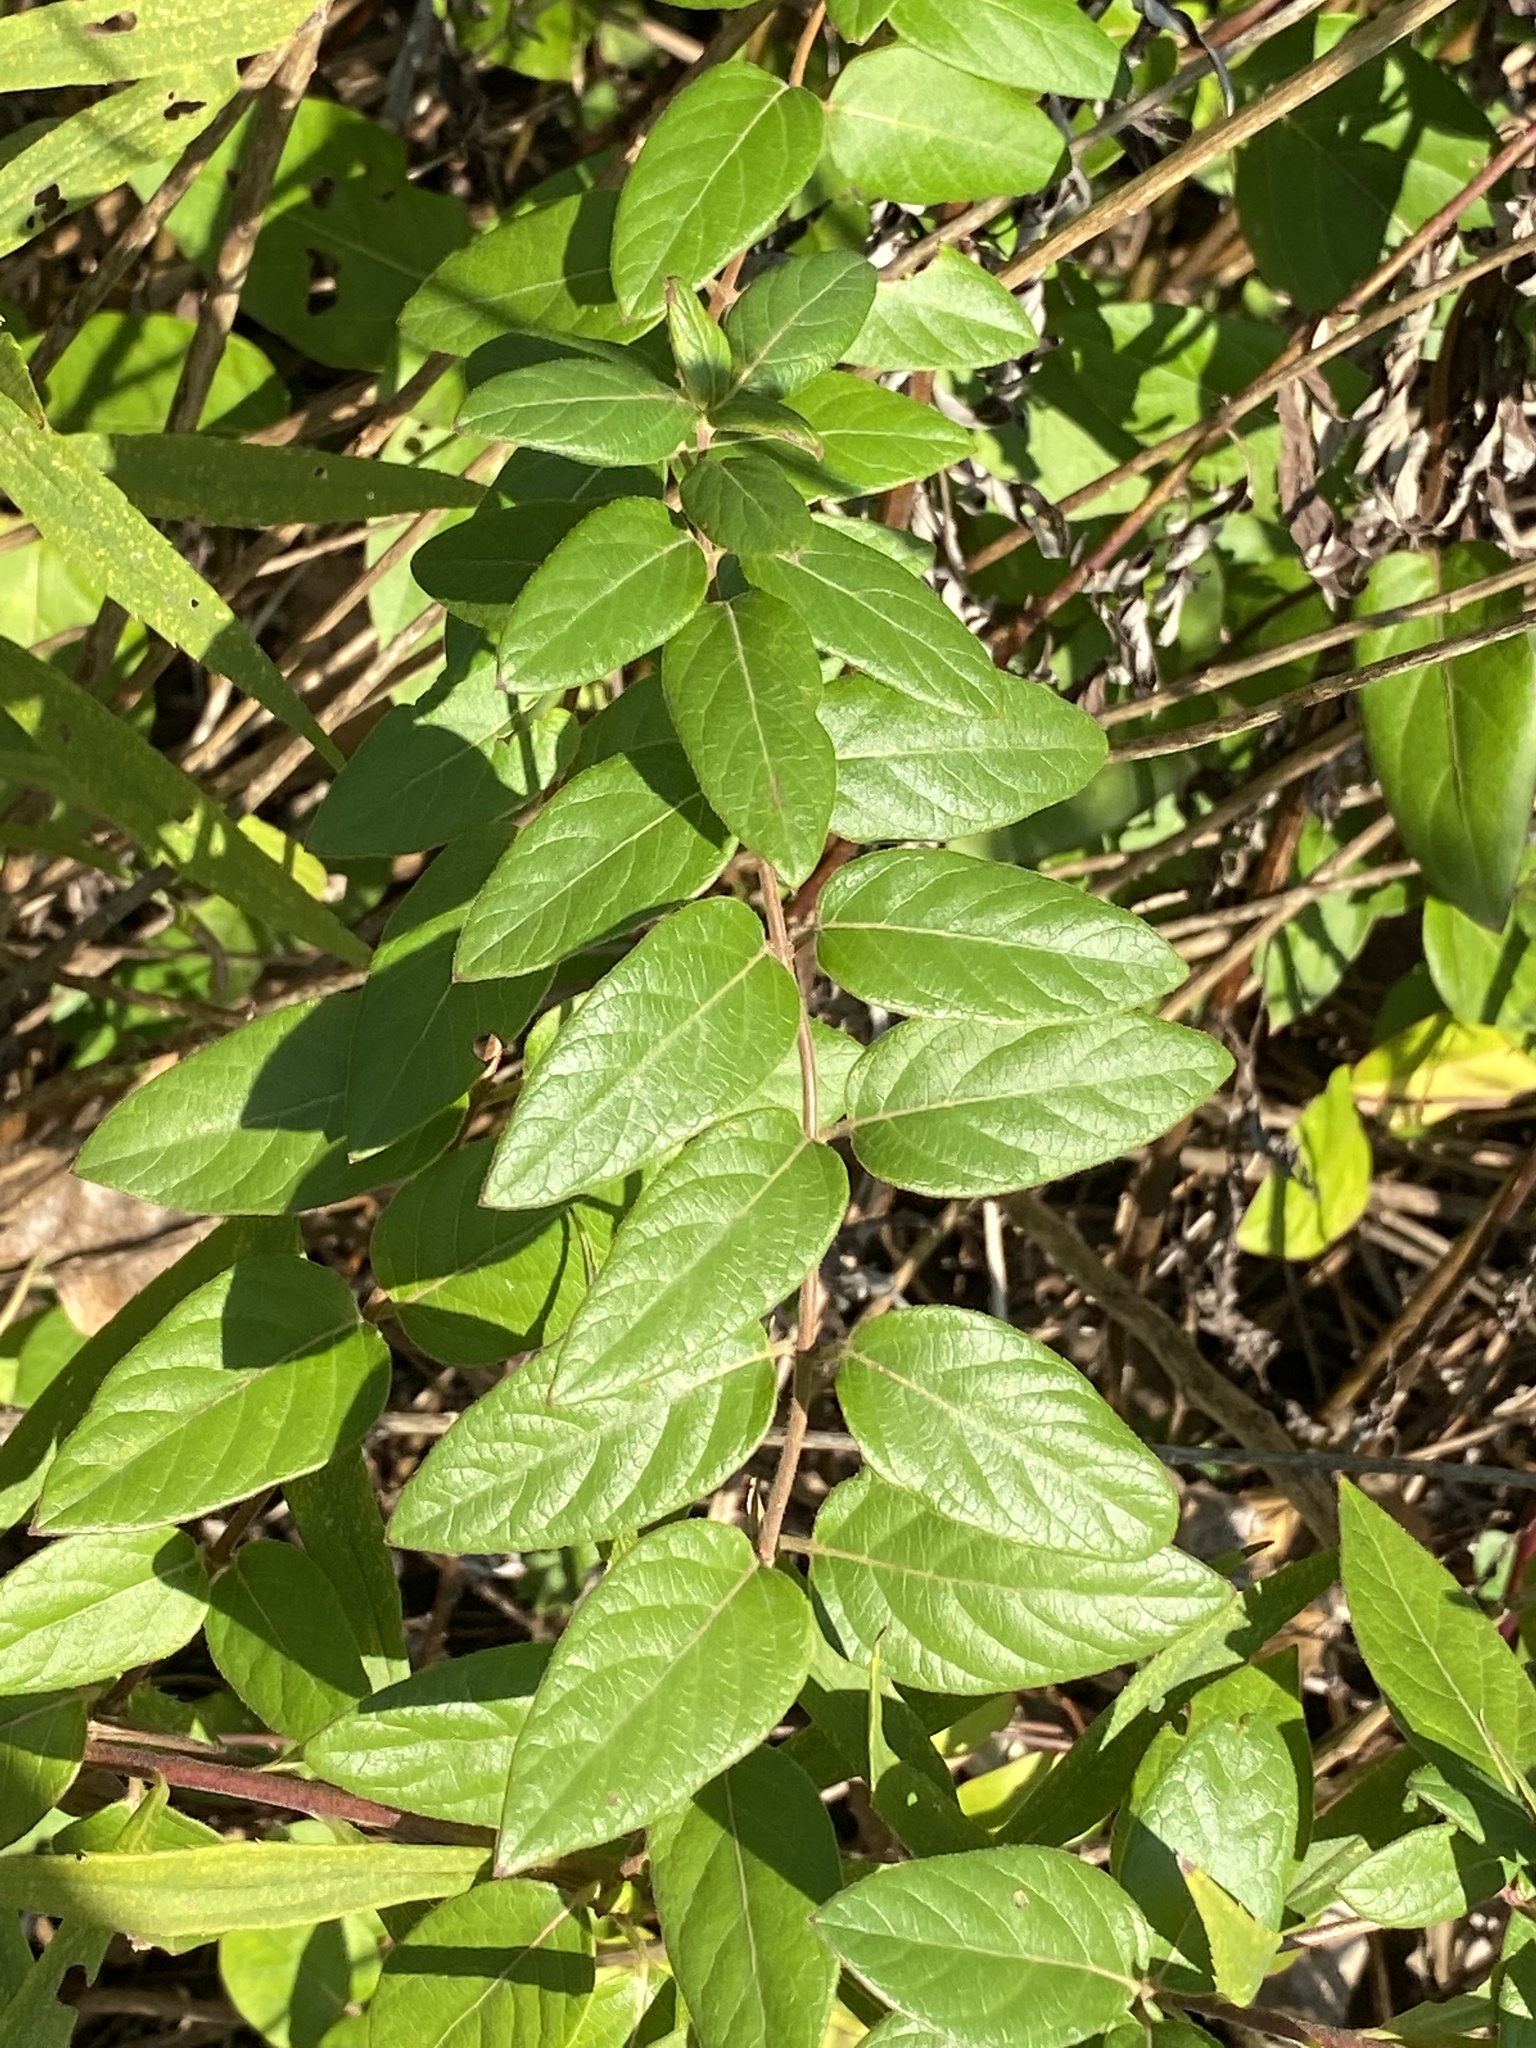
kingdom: Plantae
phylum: Tracheophyta
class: Magnoliopsida
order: Dipsacales
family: Caprifoliaceae
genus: Lonicera
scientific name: Lonicera japonica
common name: Japanese honeysuckle
